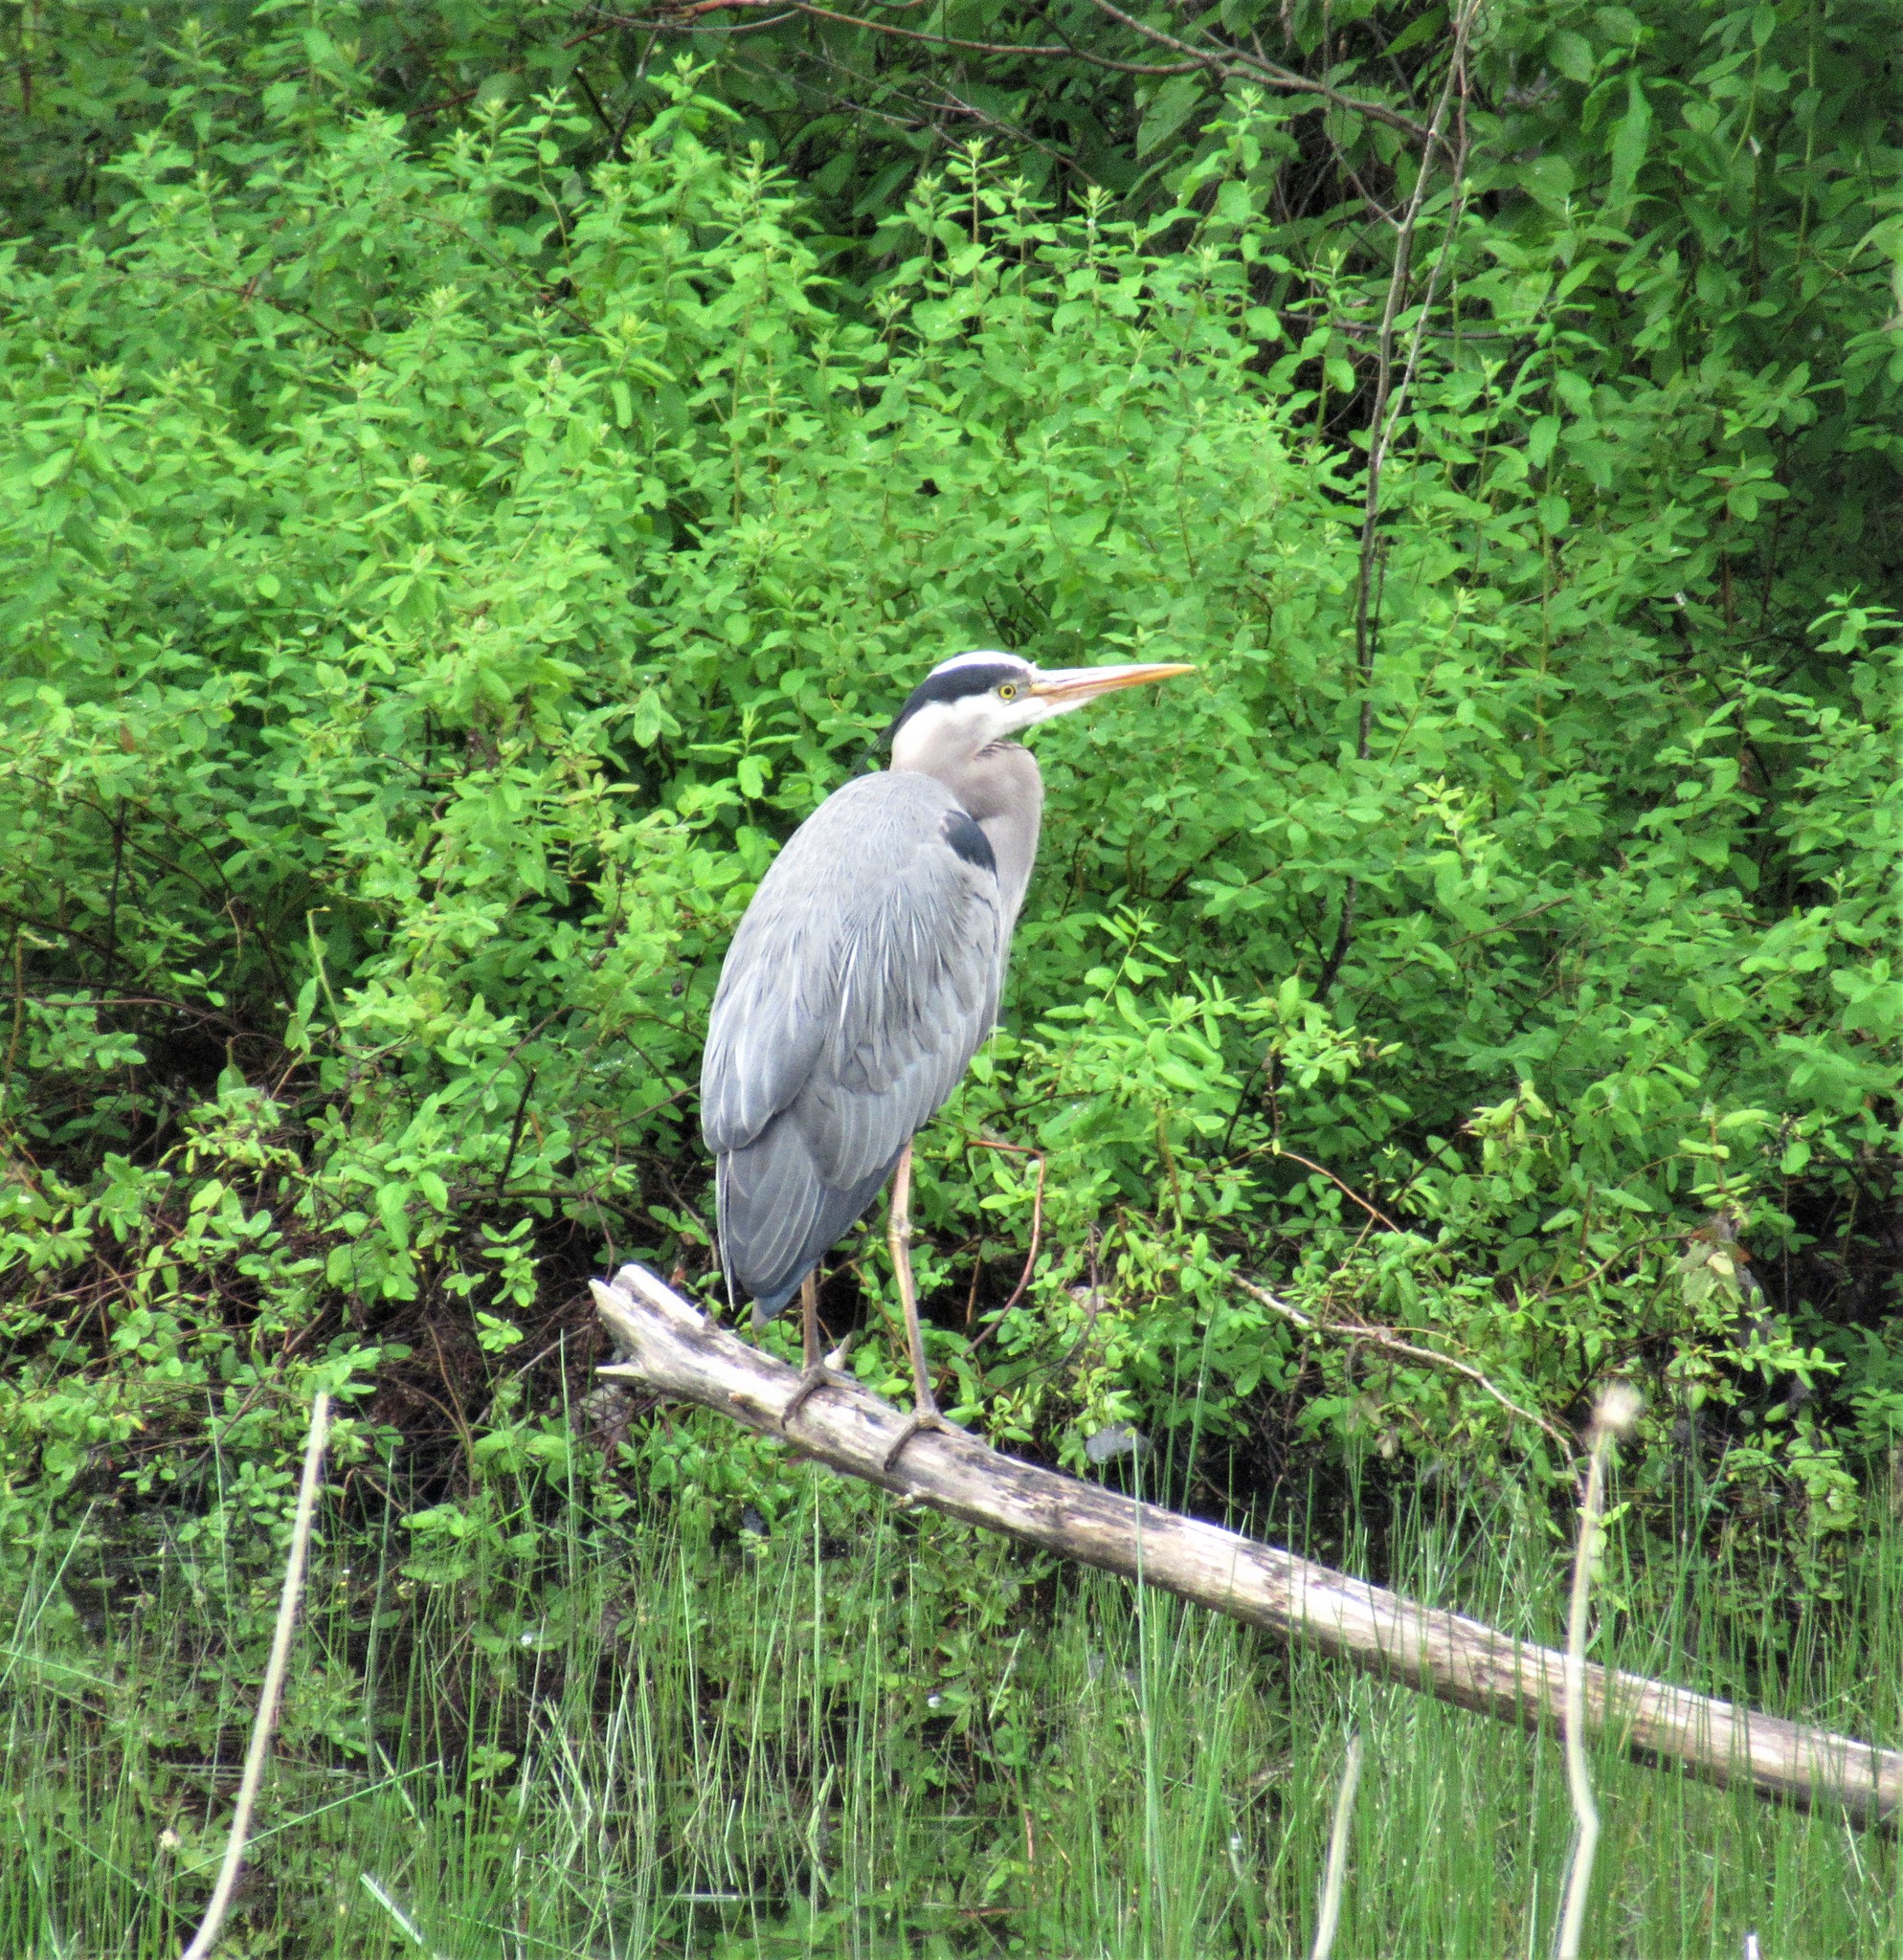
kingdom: Animalia
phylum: Chordata
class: Aves
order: Pelecaniformes
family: Ardeidae
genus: Ardea
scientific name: Ardea herodias
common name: Great blue heron
